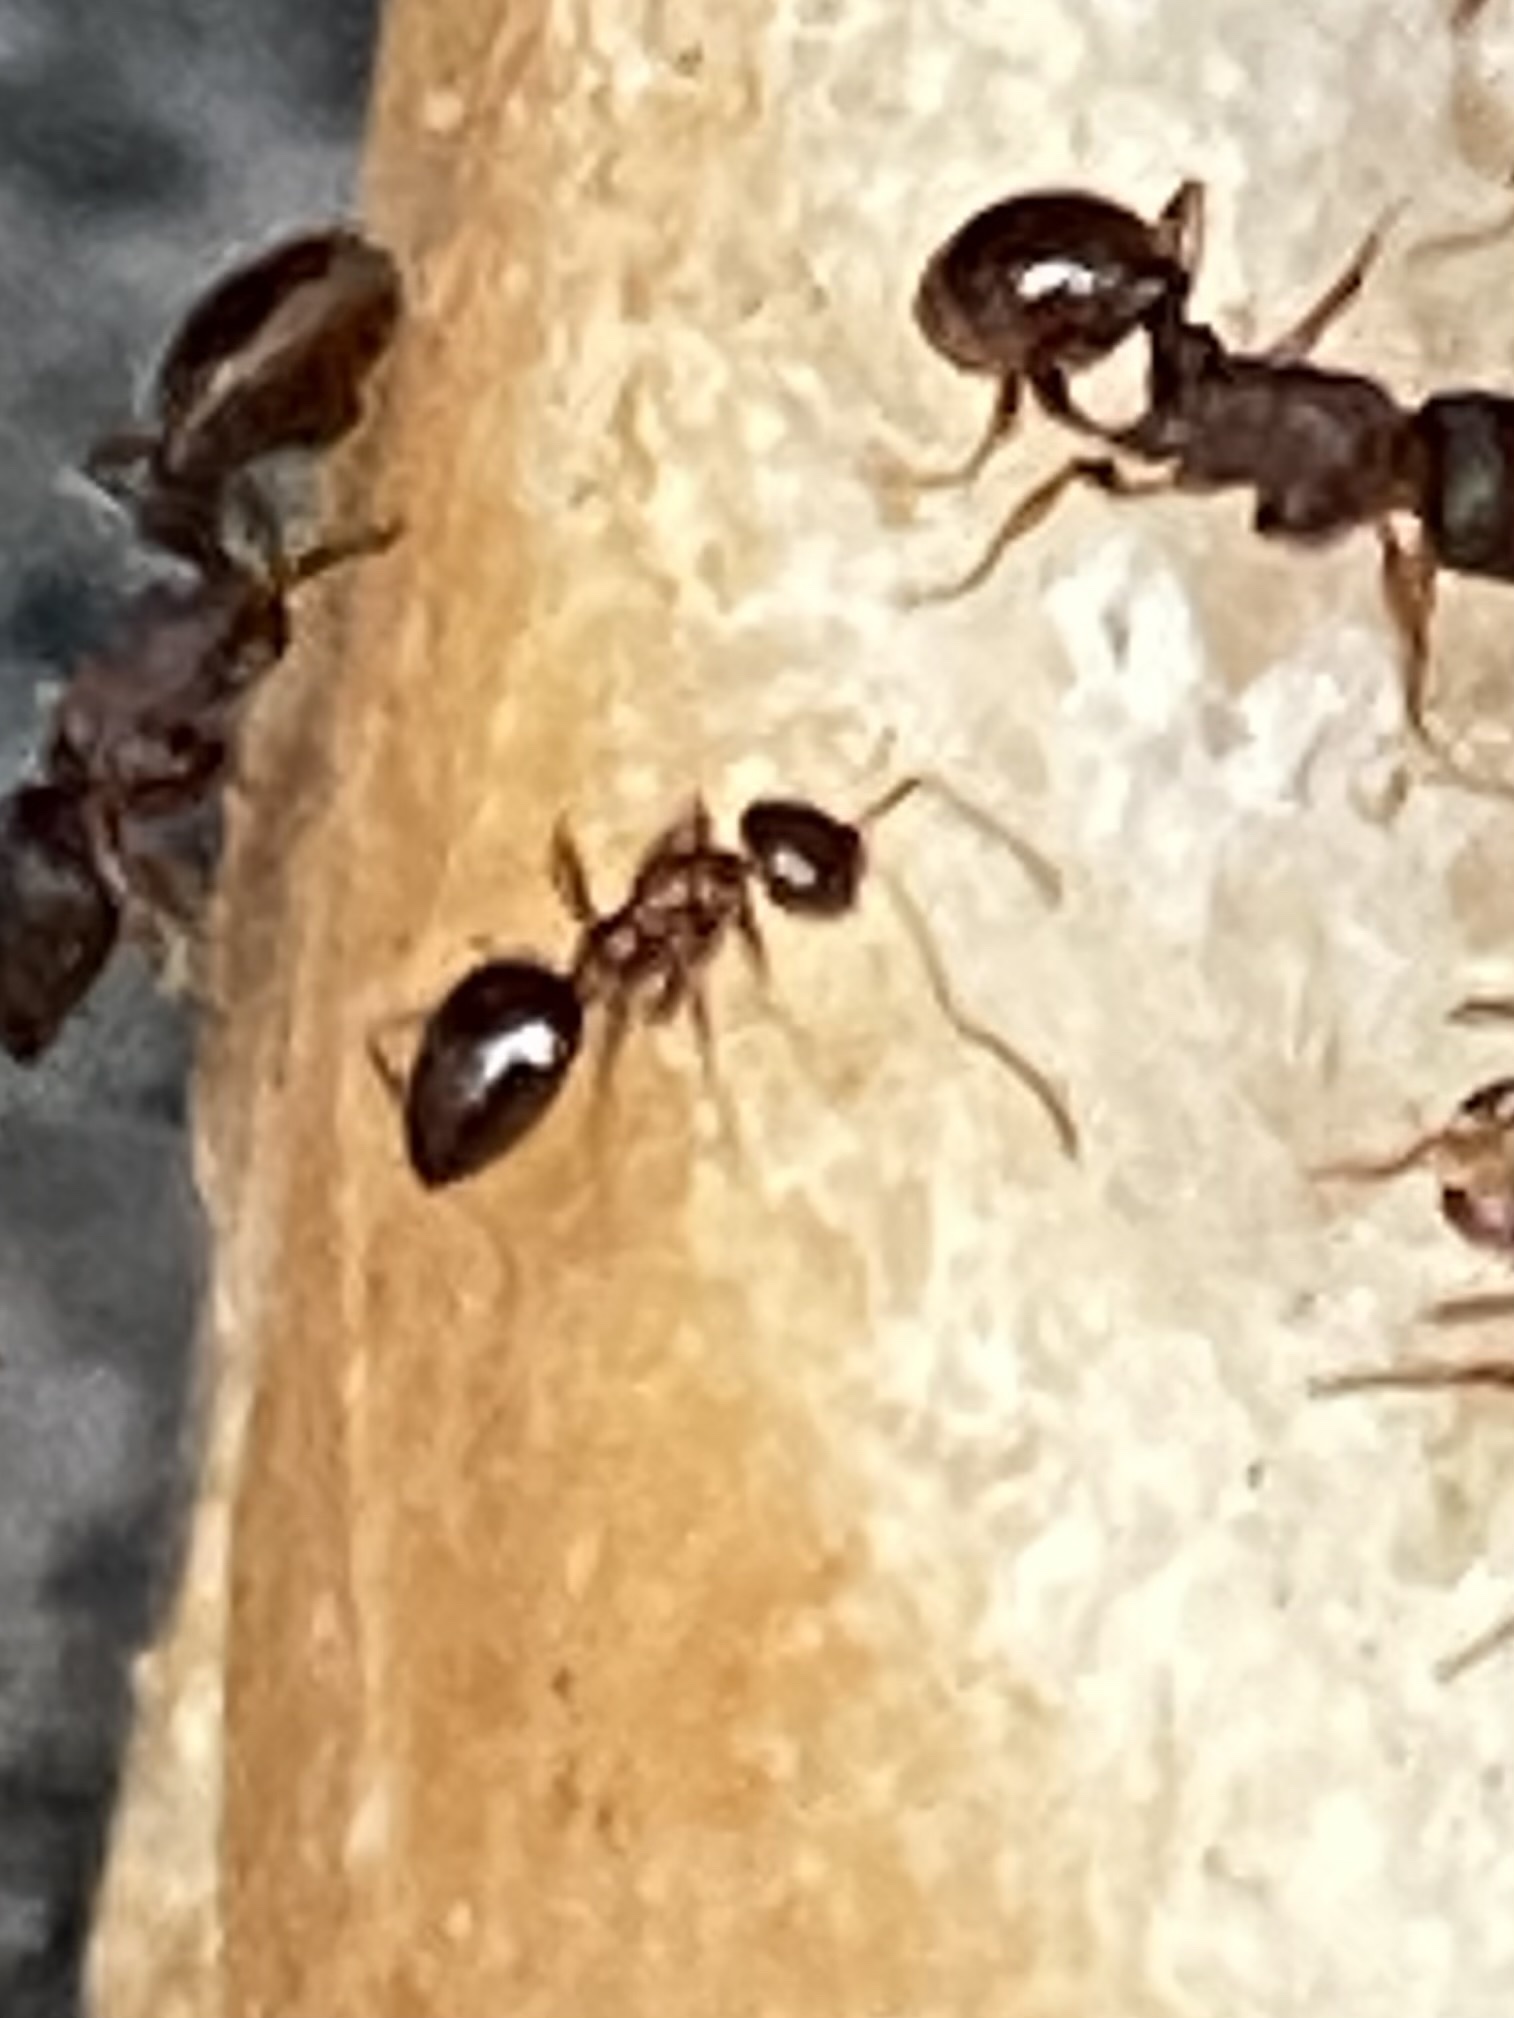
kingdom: Animalia
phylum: Arthropoda
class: Insecta
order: Hymenoptera
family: Formicidae
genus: Prenolepis
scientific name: Prenolepis imparis
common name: Small honey ant
